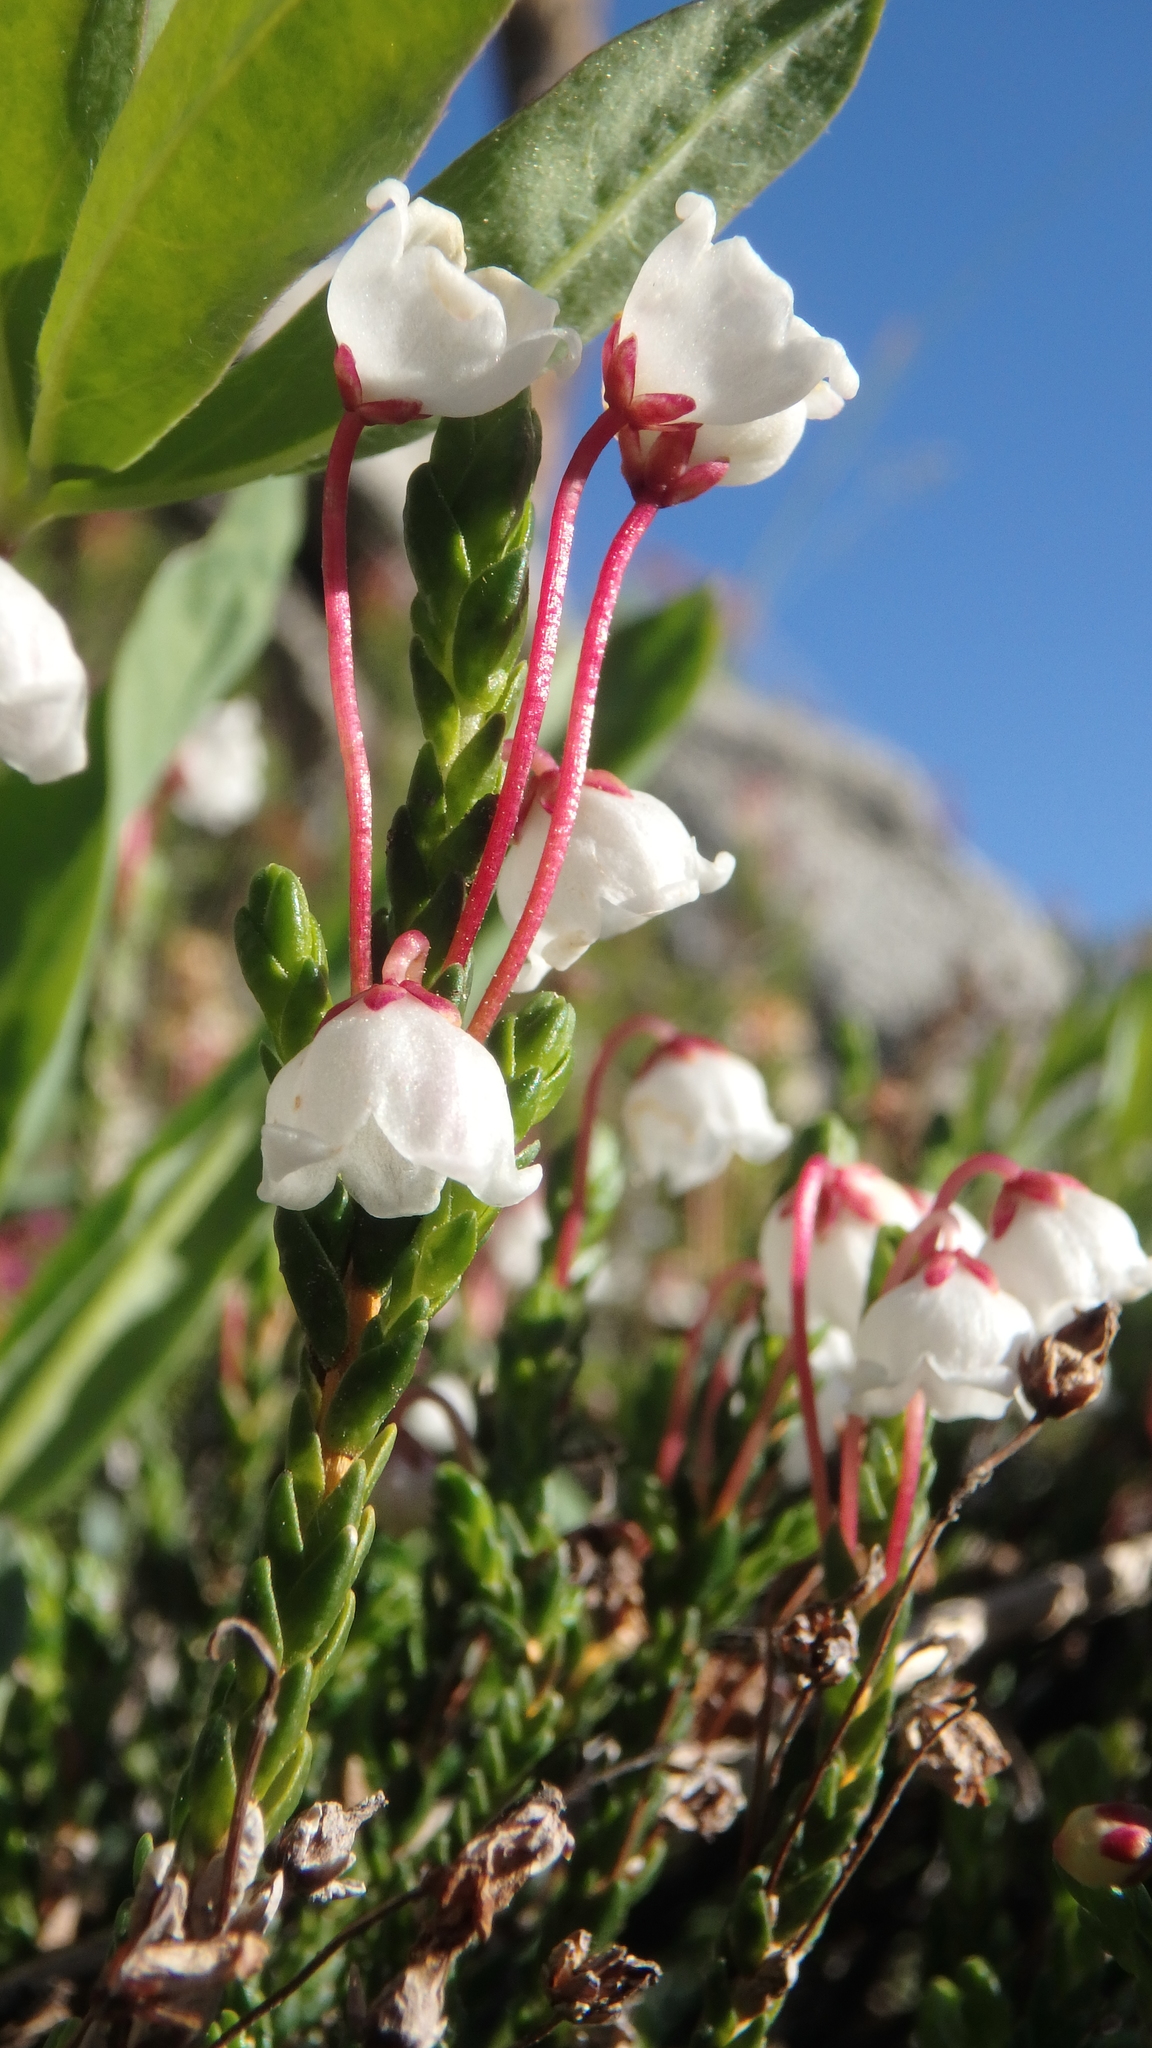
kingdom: Plantae
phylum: Tracheophyta
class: Magnoliopsida
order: Ericales
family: Ericaceae
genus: Cassiope
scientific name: Cassiope mertensiana
